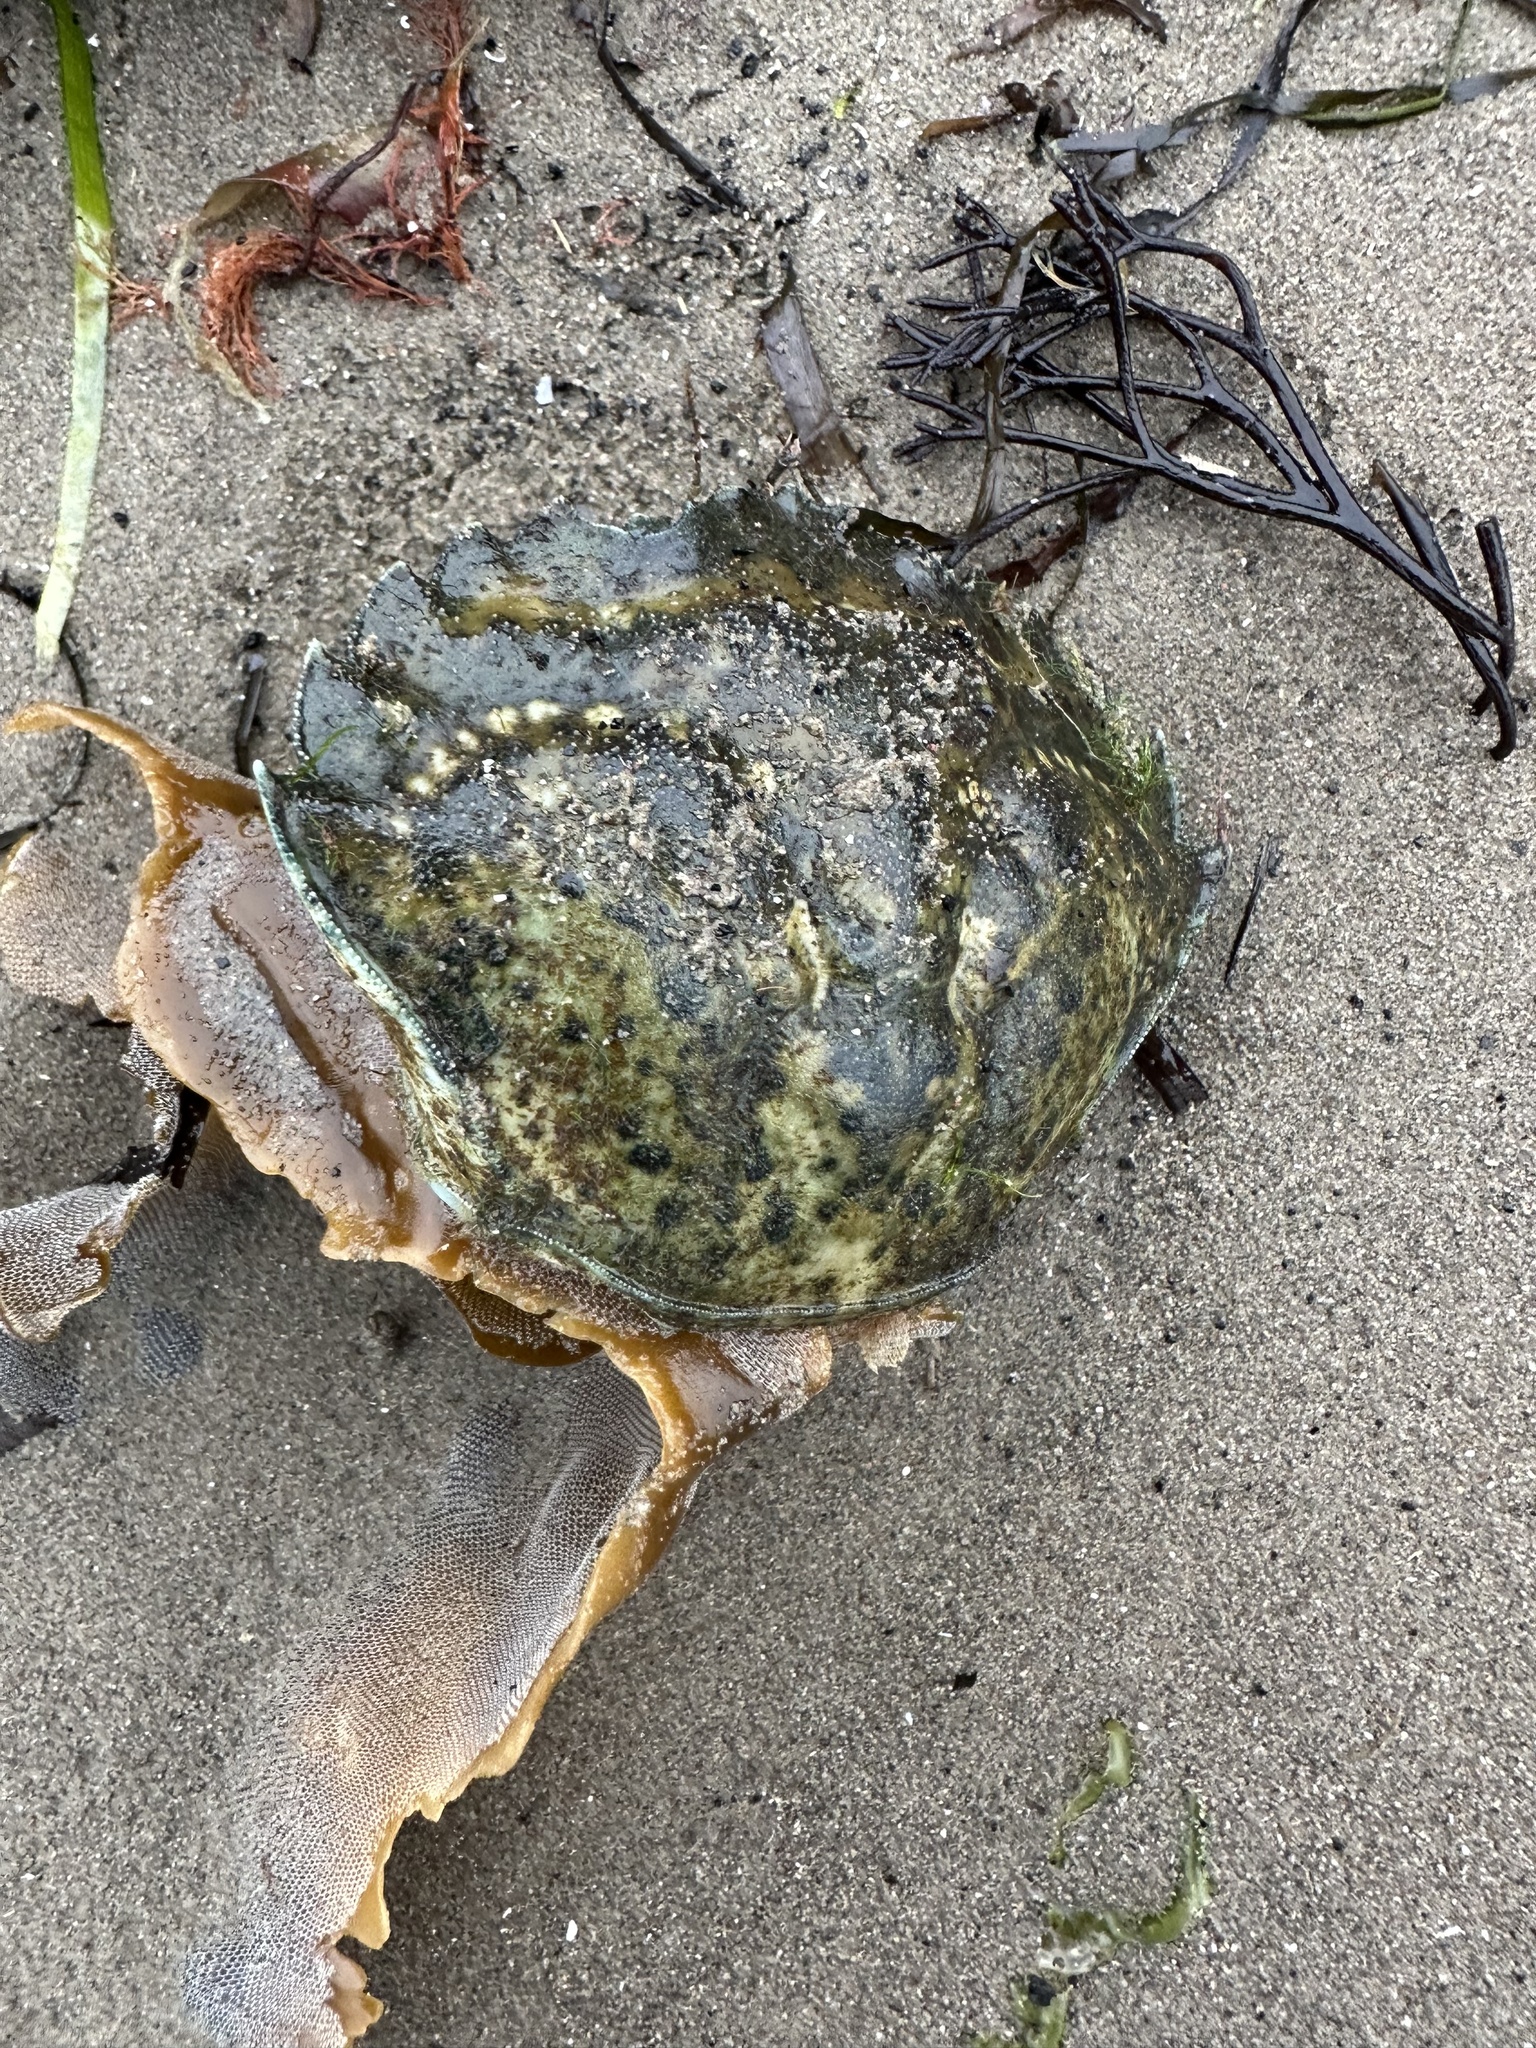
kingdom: Animalia
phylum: Arthropoda
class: Malacostraca
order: Decapoda
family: Carcinidae
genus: Carcinus
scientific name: Carcinus maenas
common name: European green crab
